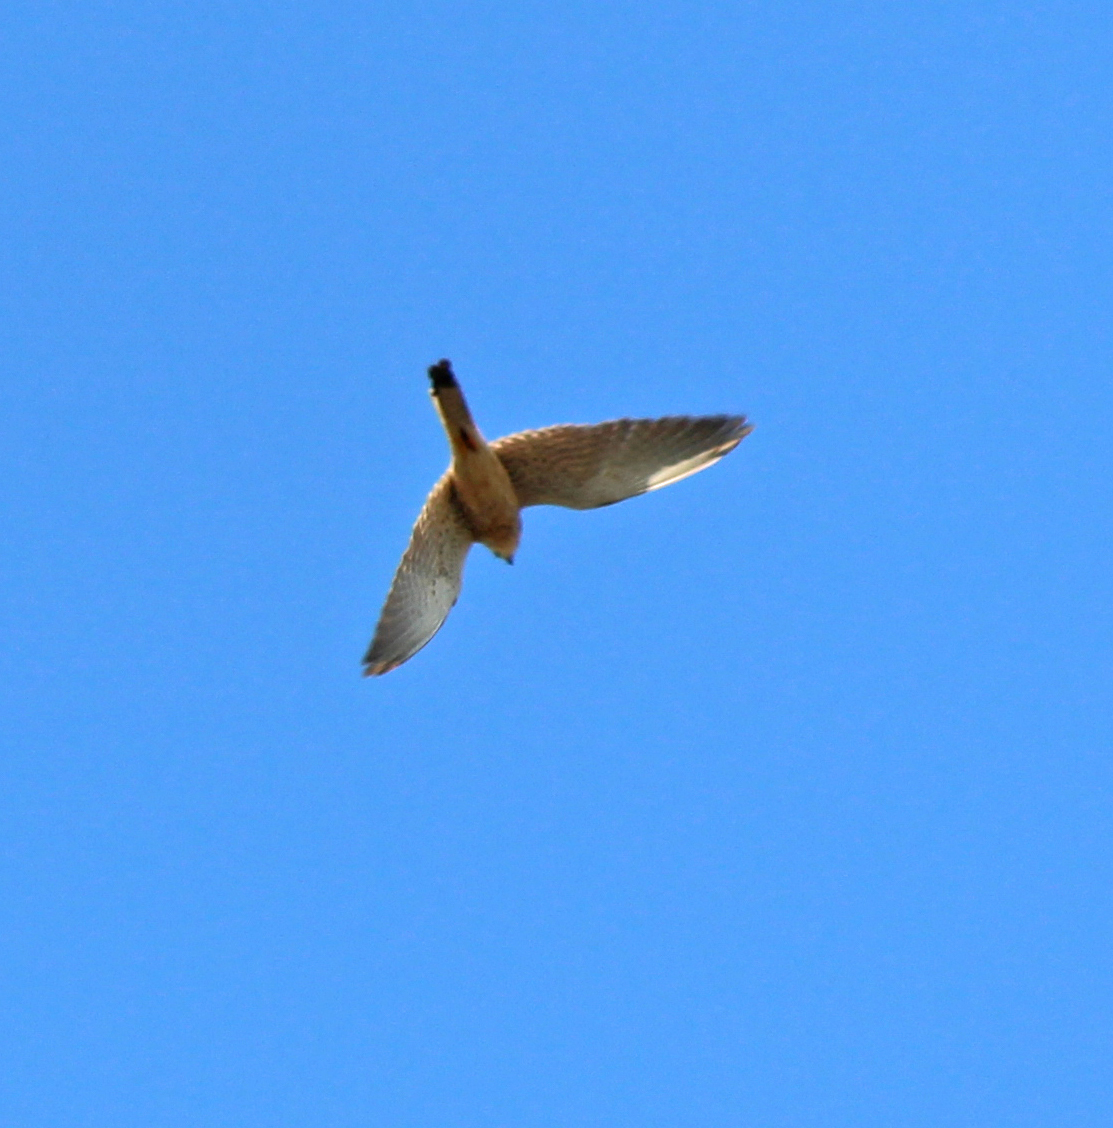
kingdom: Animalia
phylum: Chordata
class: Aves
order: Falconiformes
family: Falconidae
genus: Falco
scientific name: Falco tinnunculus
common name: Common kestrel
